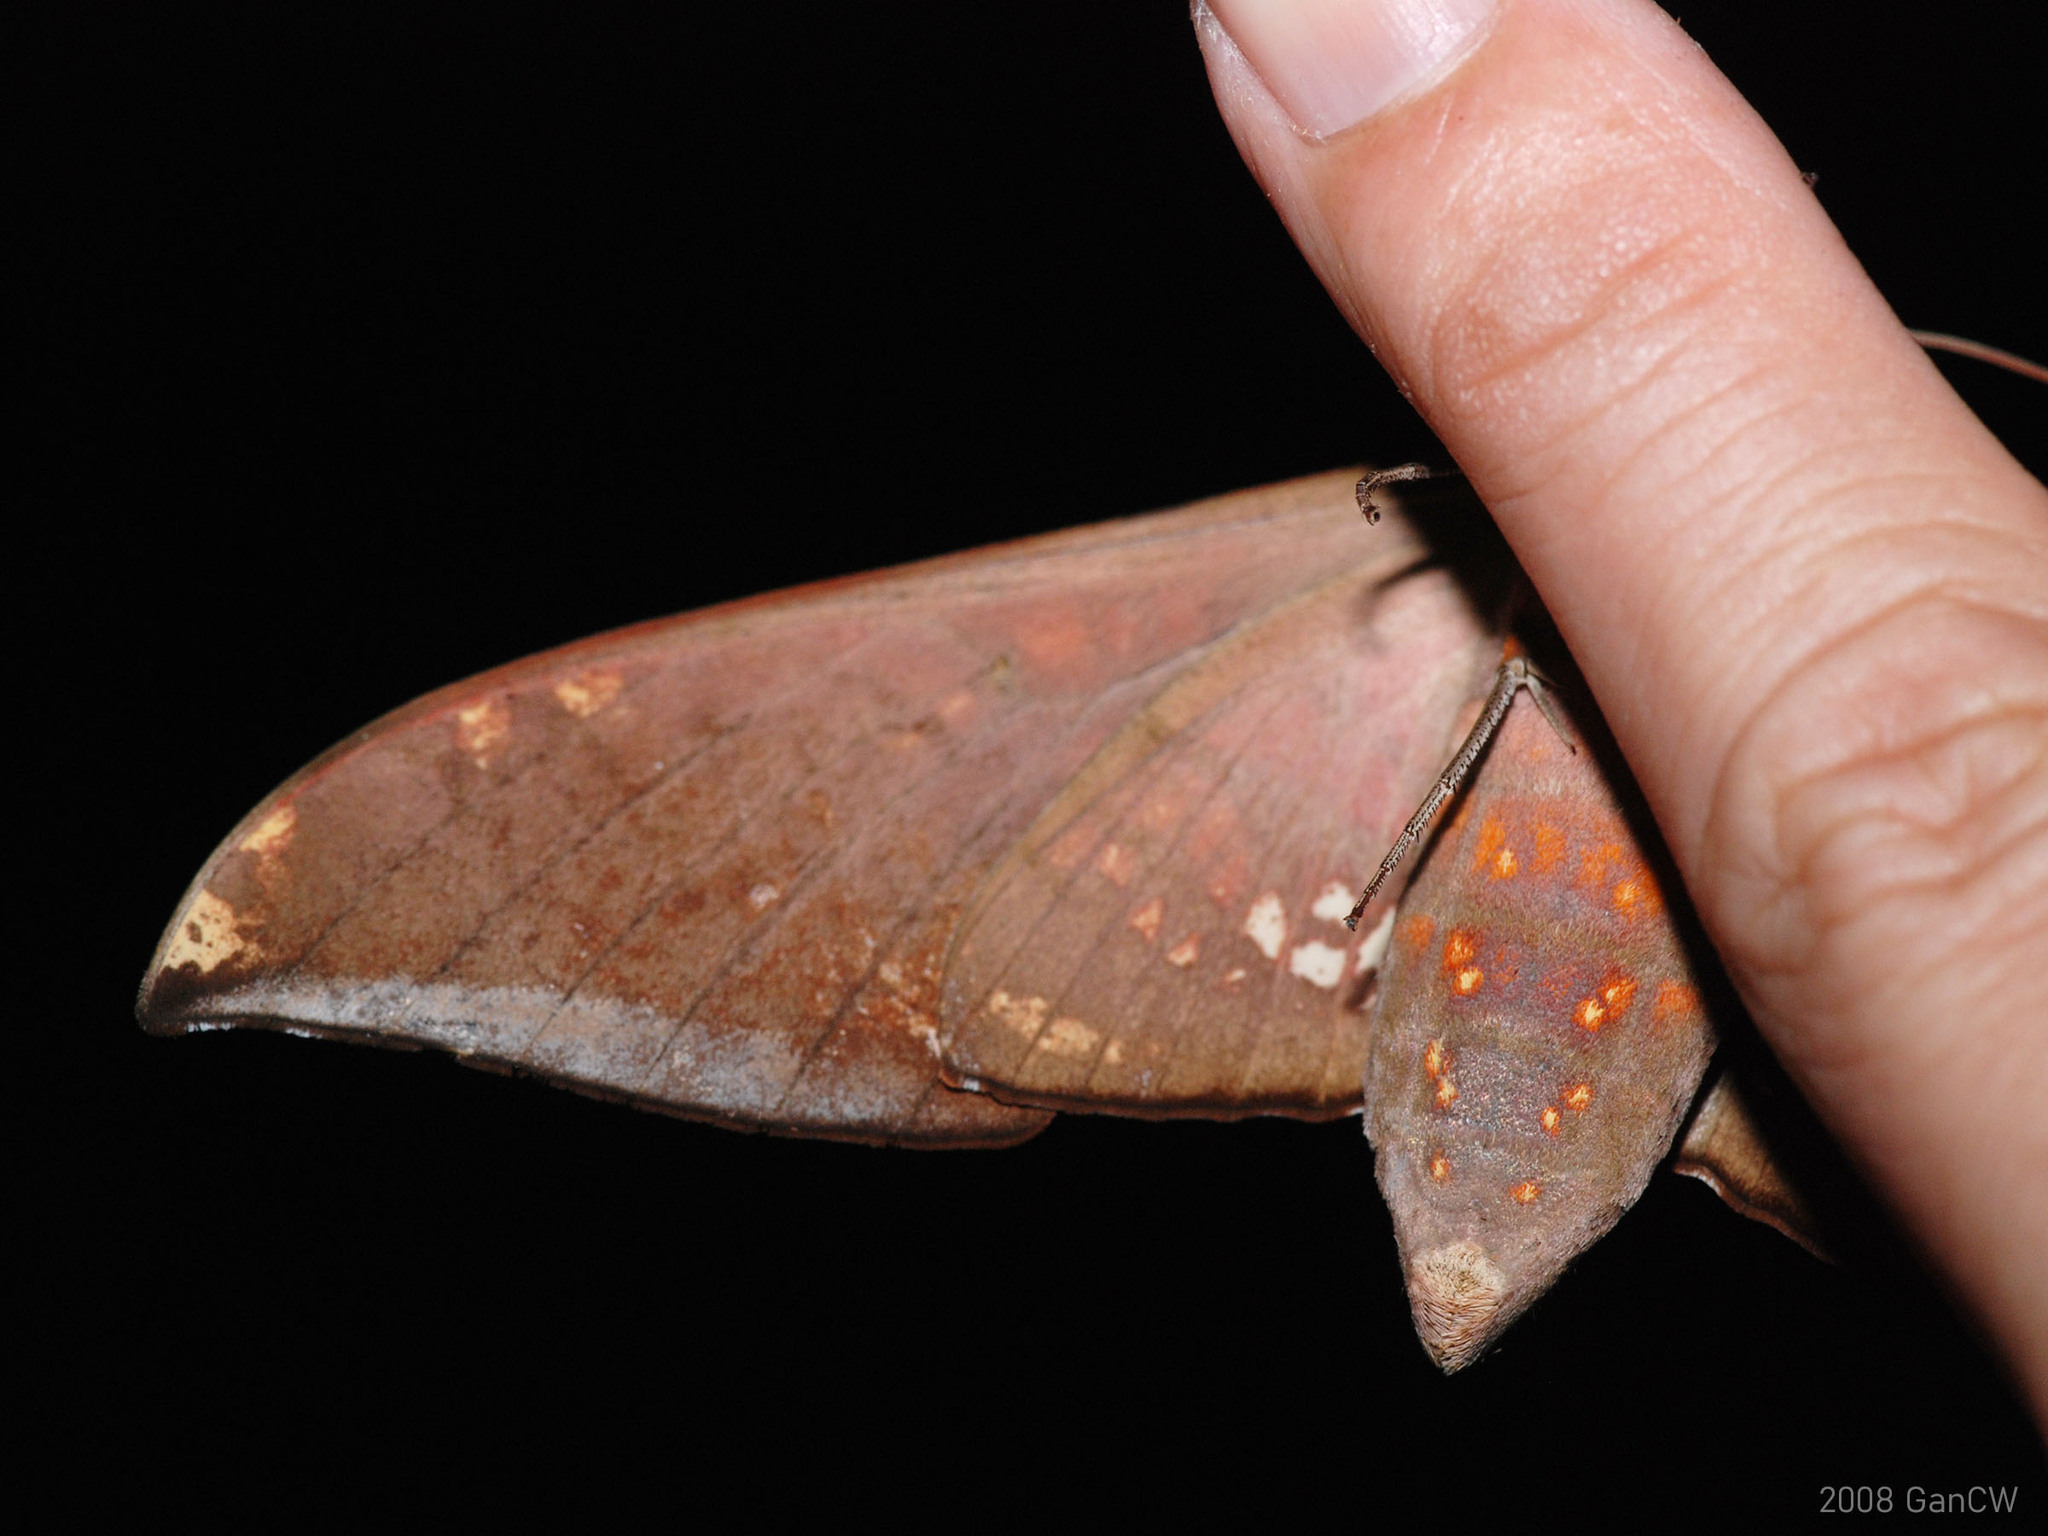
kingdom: Animalia
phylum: Arthropoda
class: Insecta
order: Lepidoptera
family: Sphingidae
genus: Ambulyx
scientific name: Ambulyx canescens
